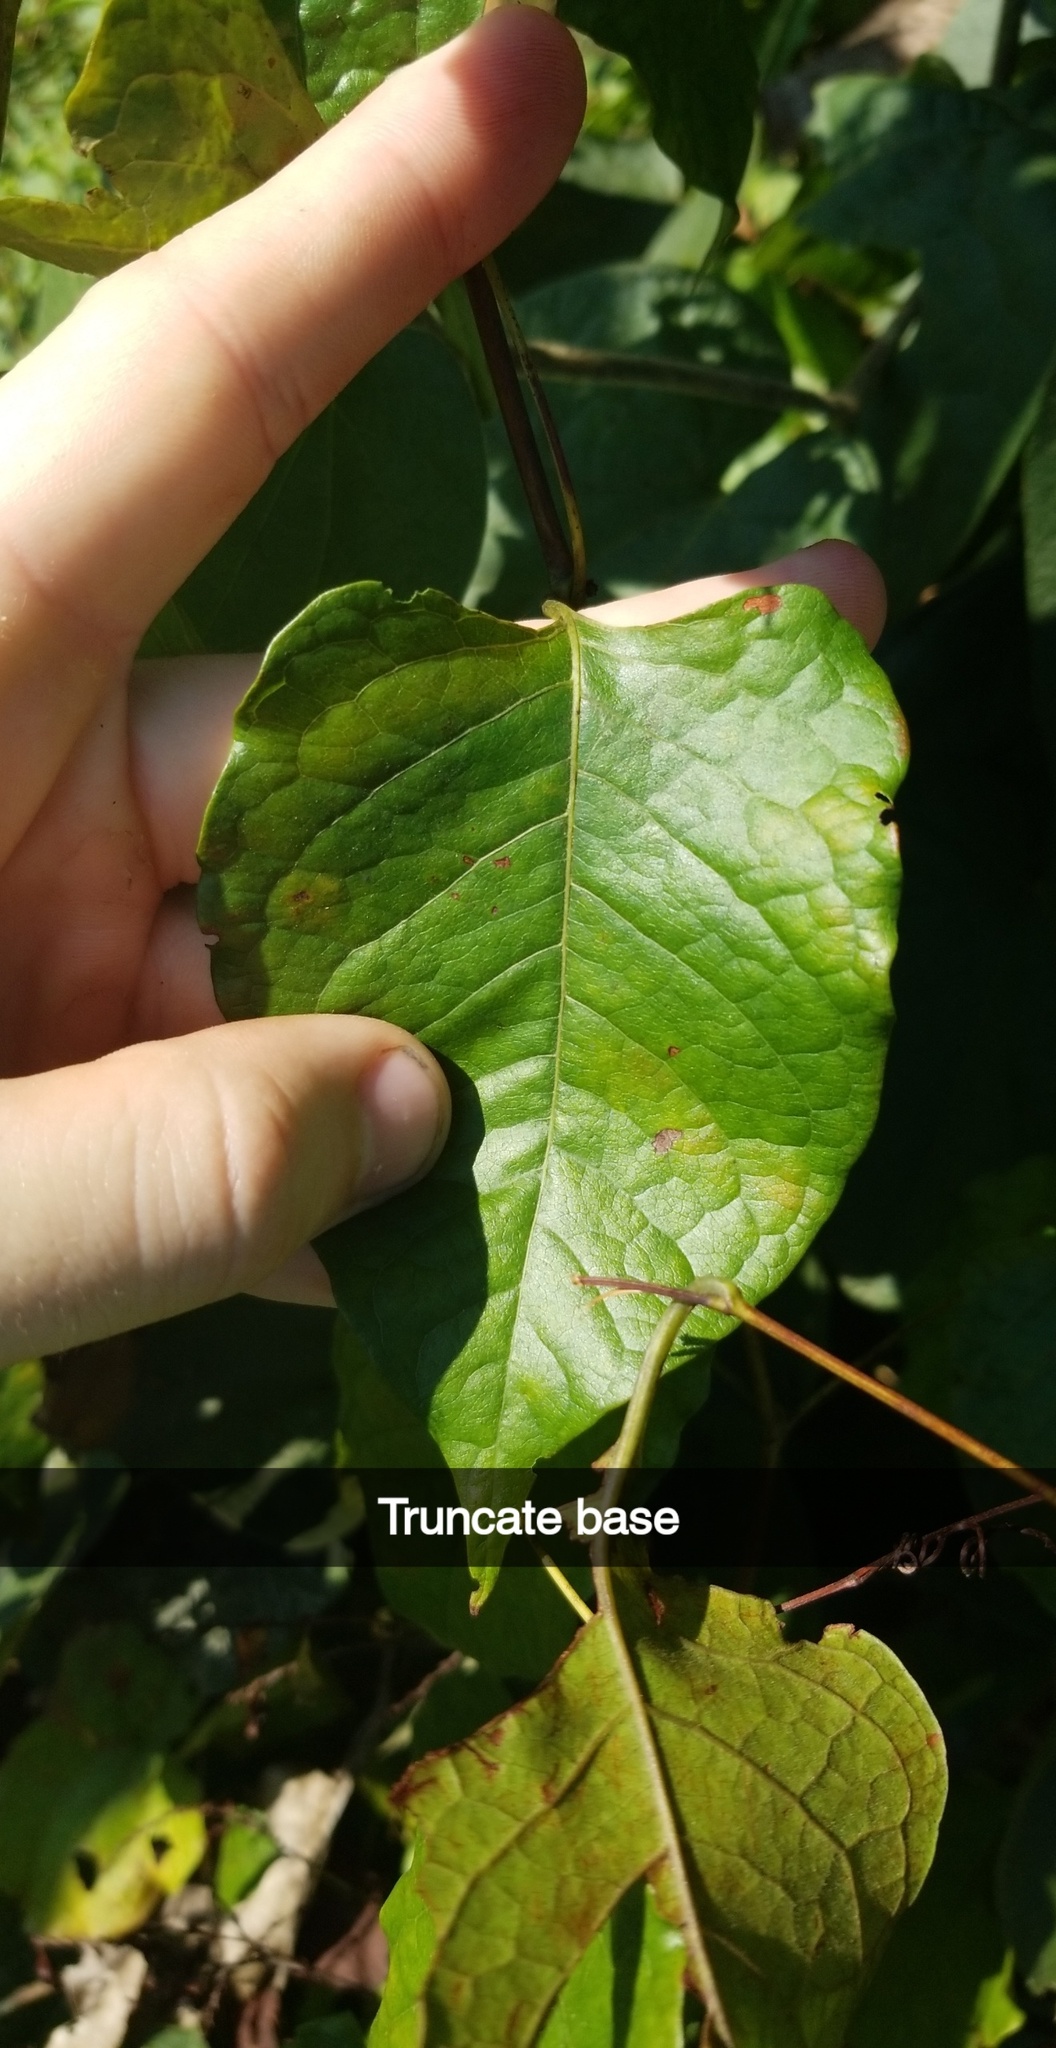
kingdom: Plantae
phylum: Tracheophyta
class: Magnoliopsida
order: Caryophyllales
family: Polygonaceae
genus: Brunnichia
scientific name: Brunnichia ovata
